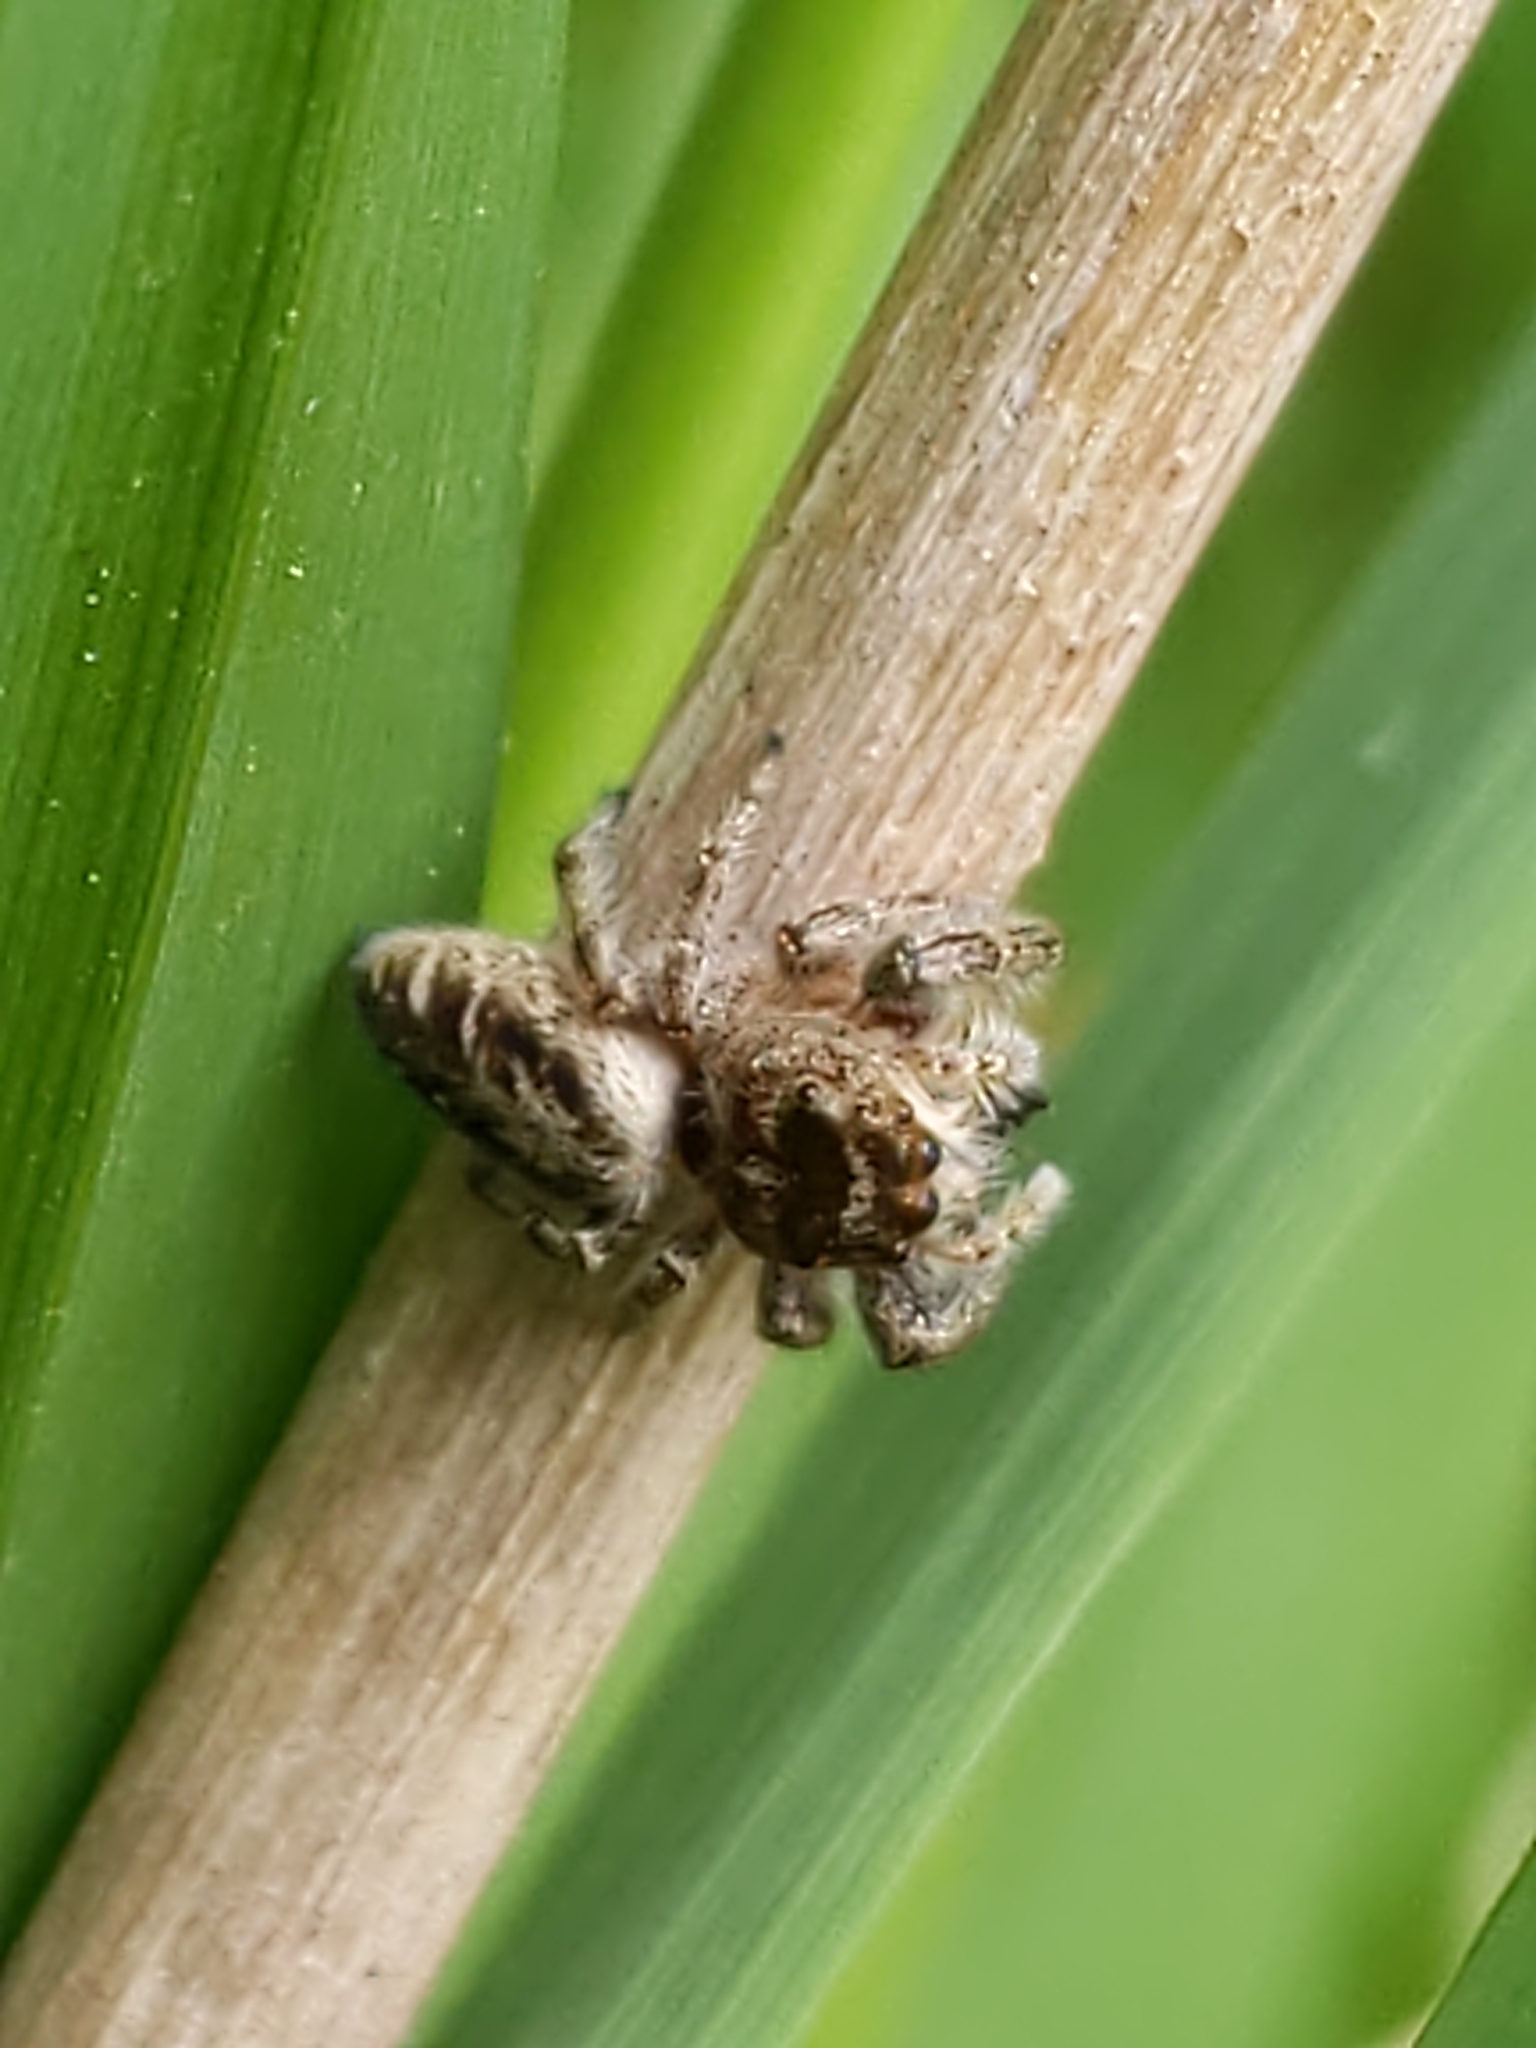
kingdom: Animalia
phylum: Arthropoda
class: Arachnida
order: Araneae
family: Salticidae
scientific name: Salticidae
